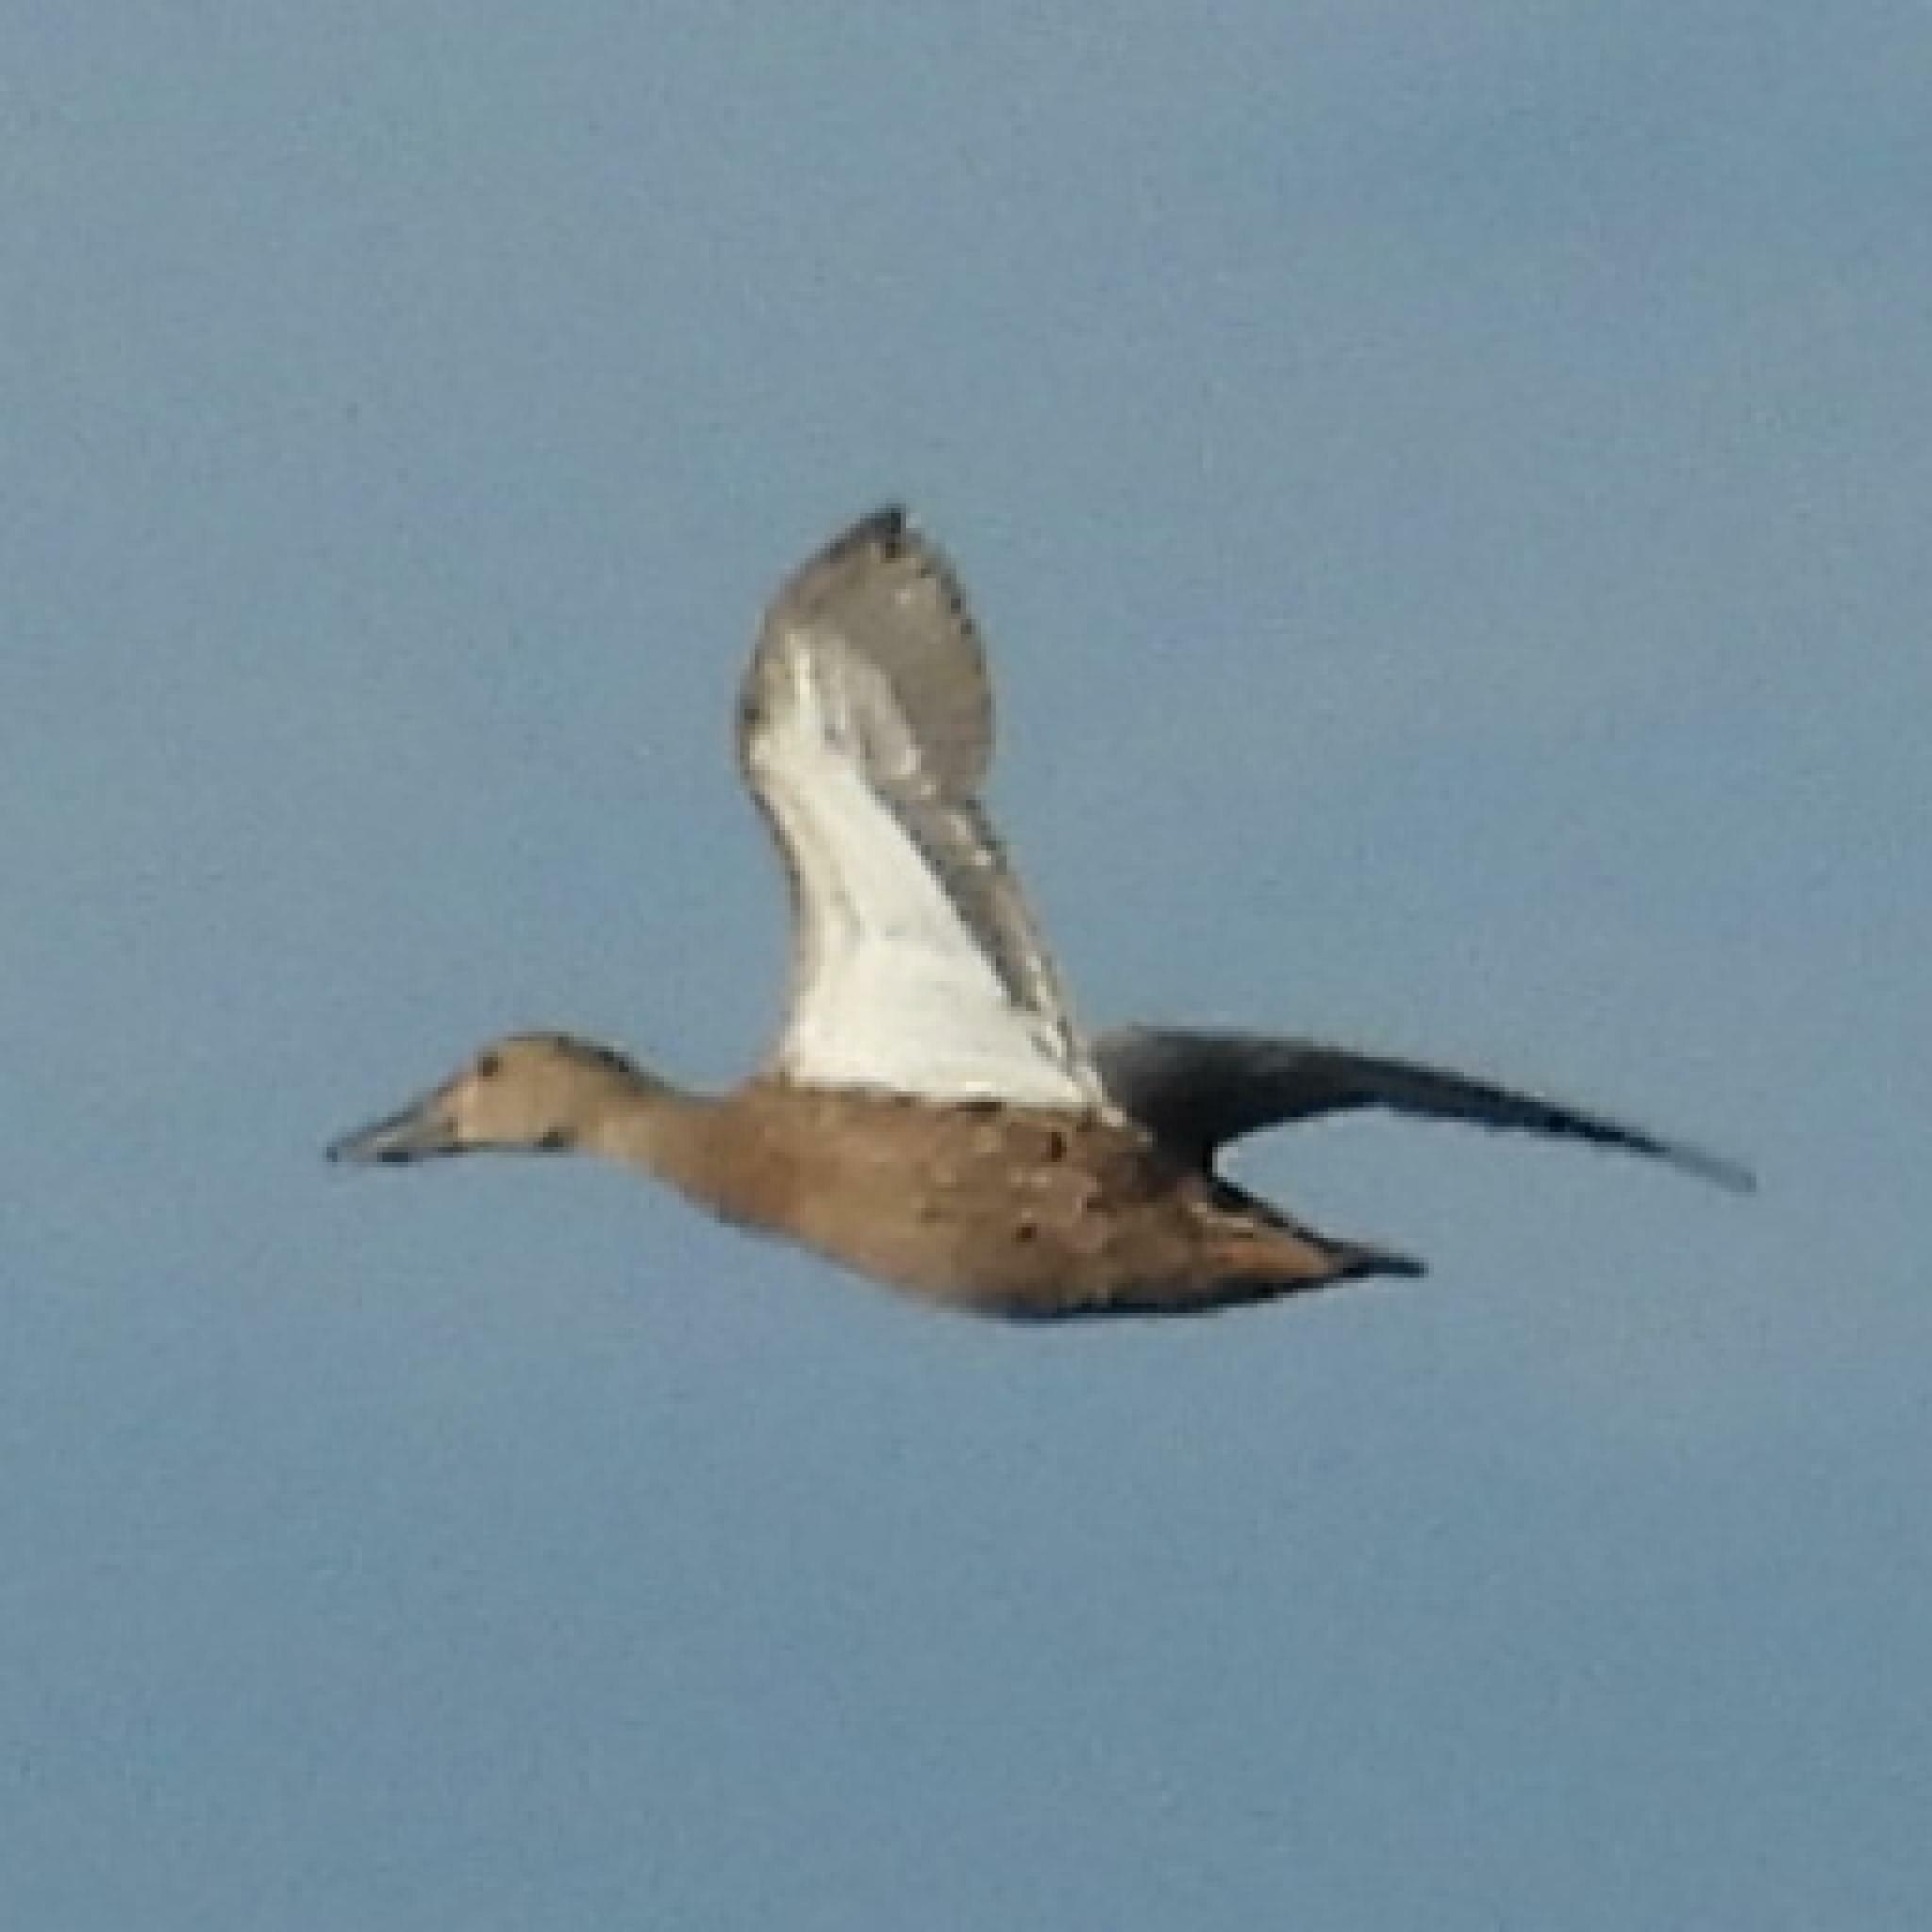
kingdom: Animalia
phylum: Chordata
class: Aves
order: Anseriformes
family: Anatidae
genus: Spatula
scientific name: Spatula smithii
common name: Cape shoveler
